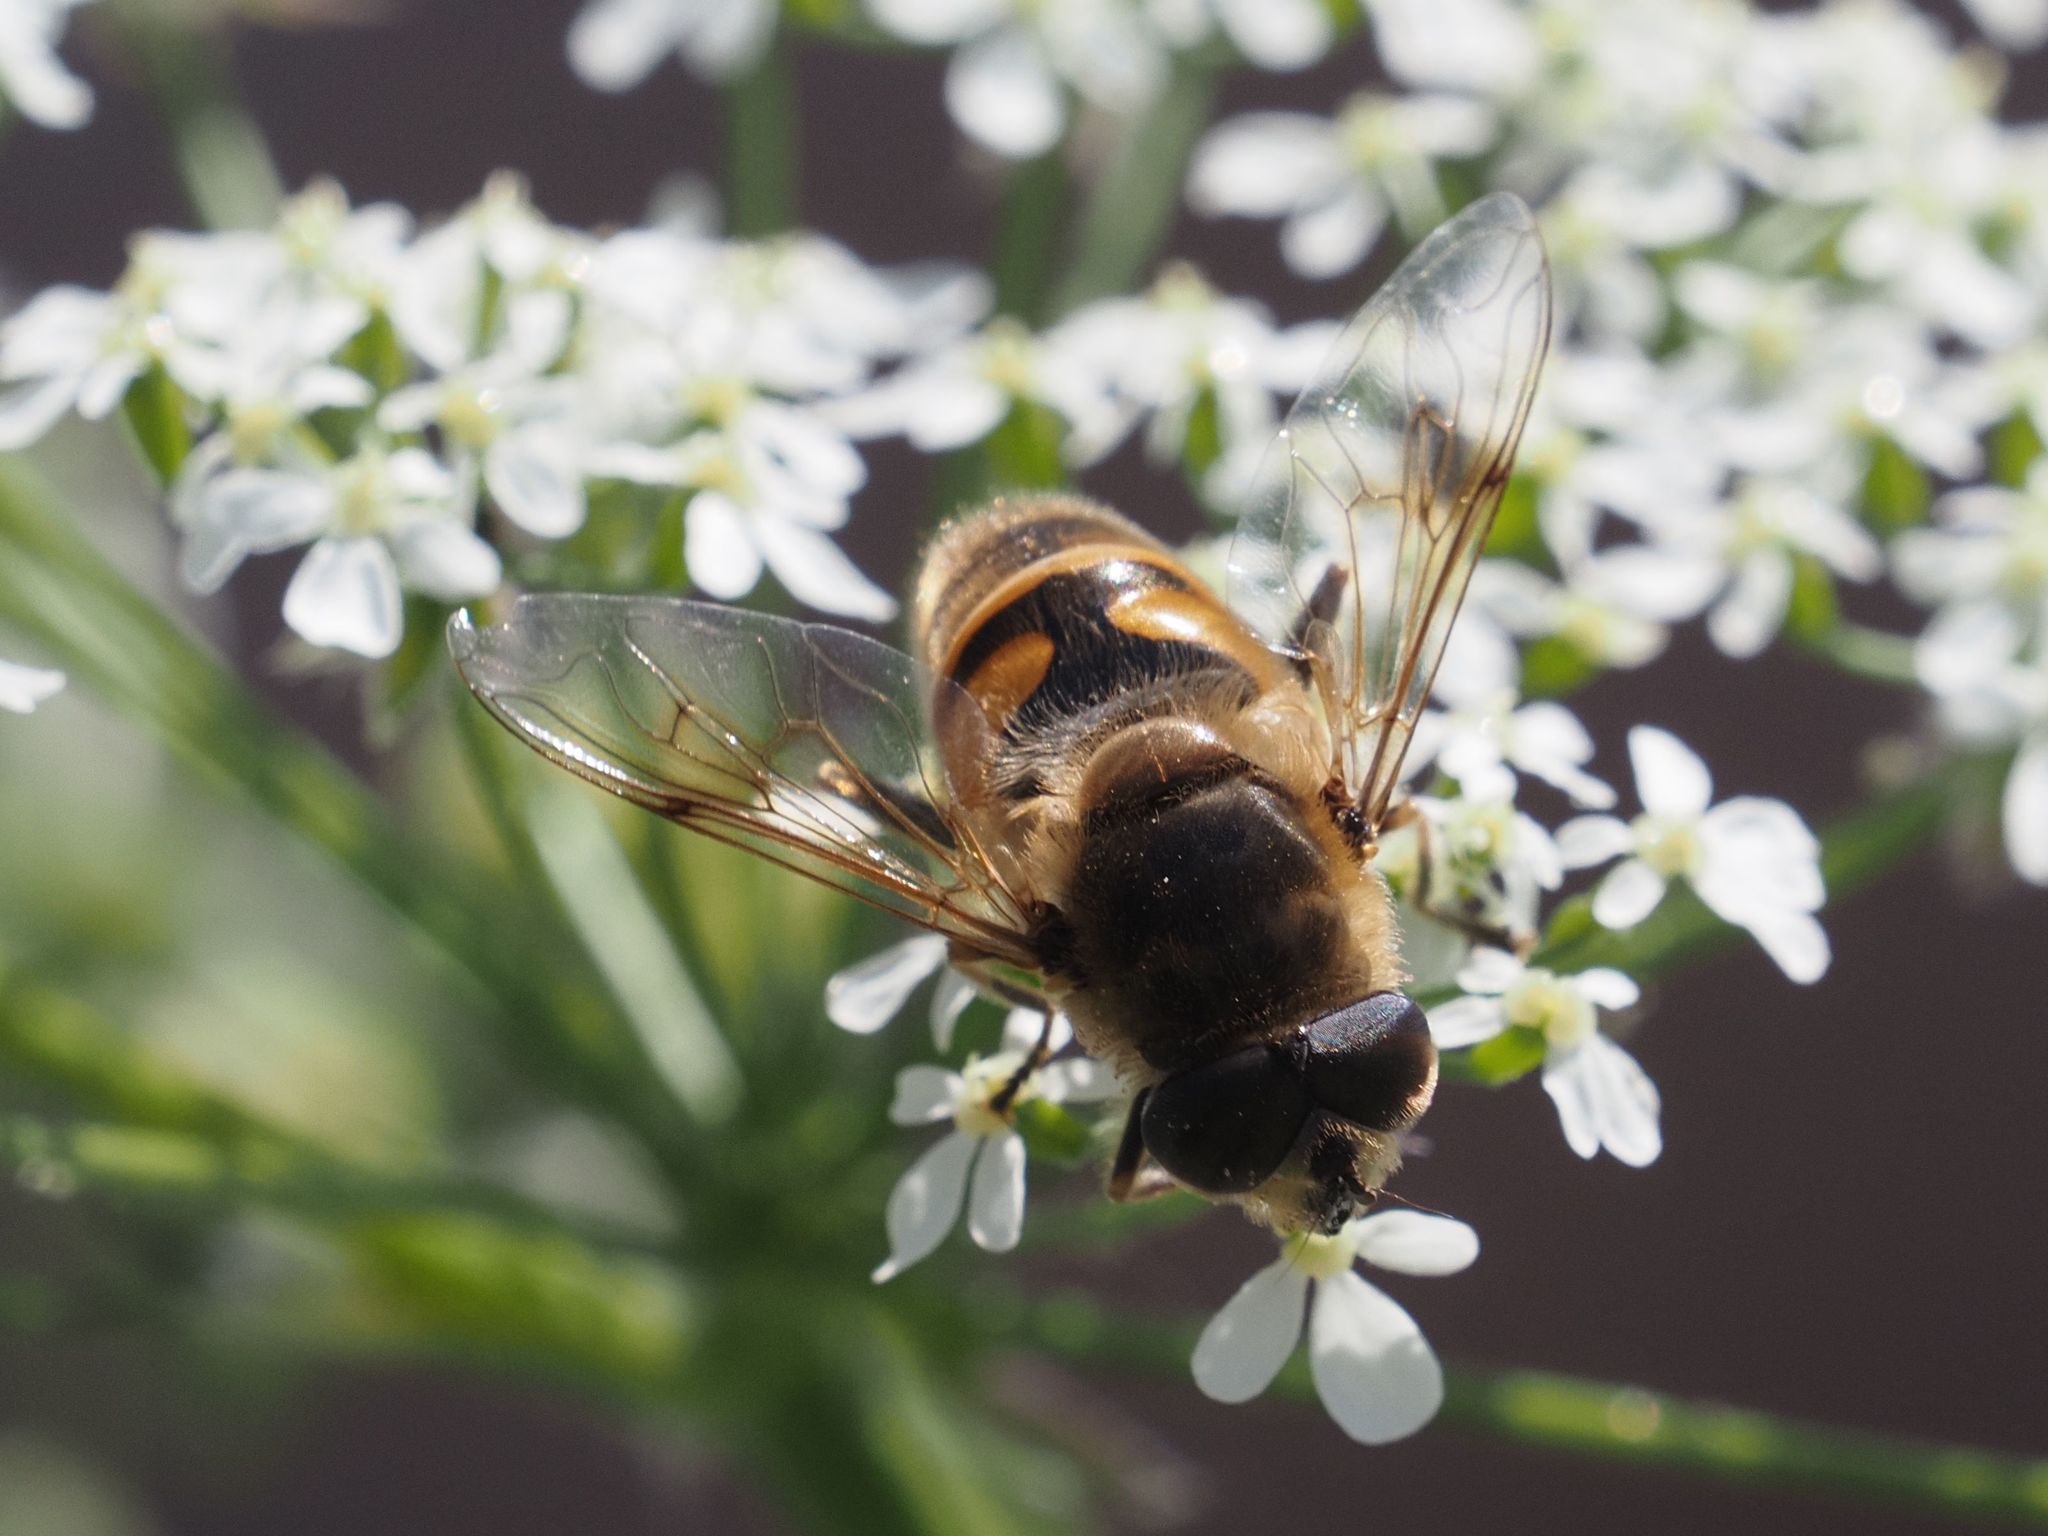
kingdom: Animalia
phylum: Arthropoda
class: Insecta
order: Diptera
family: Syrphidae
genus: Eristalis
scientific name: Eristalis tenax
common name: Drone fly
